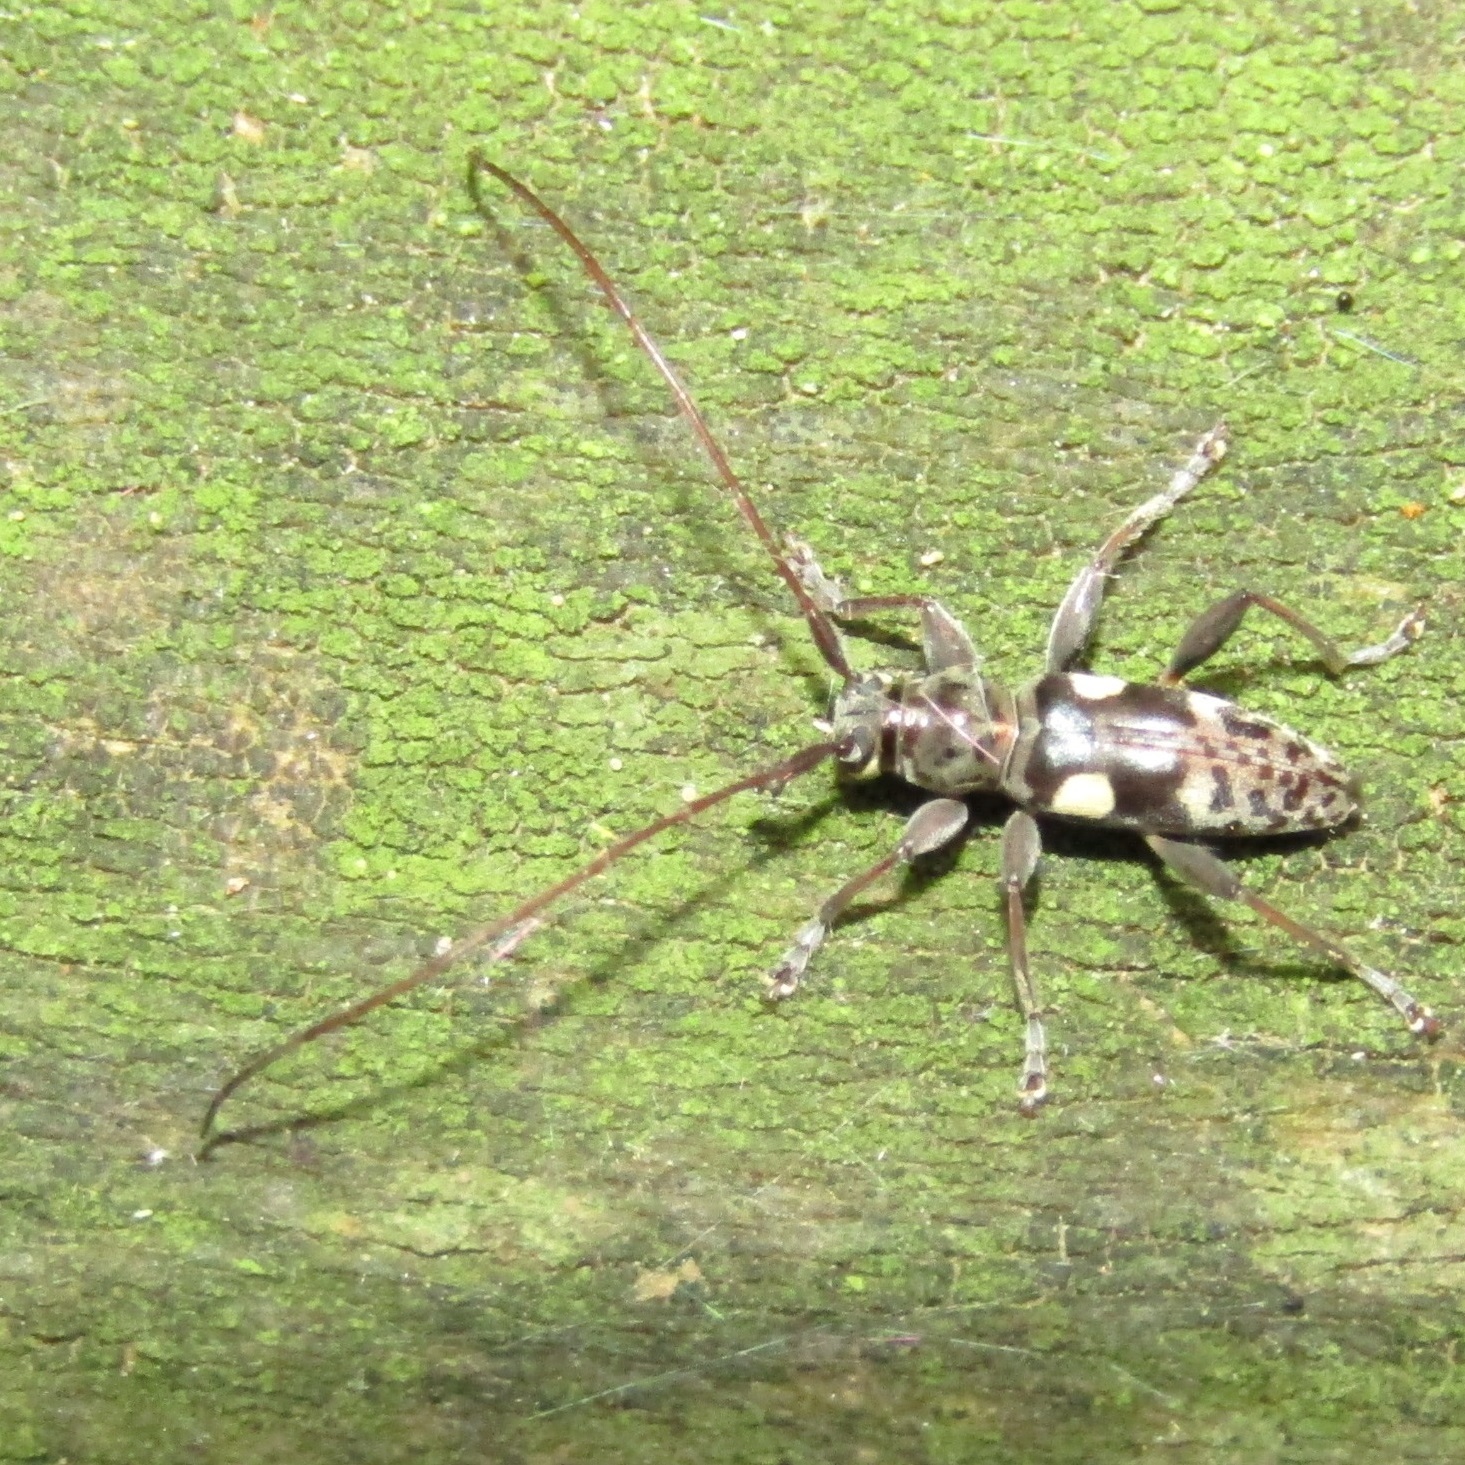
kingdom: Animalia
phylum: Arthropoda
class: Insecta
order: Coleoptera
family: Cerambycidae
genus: Stenellipsis
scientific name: Stenellipsis bimaculata
